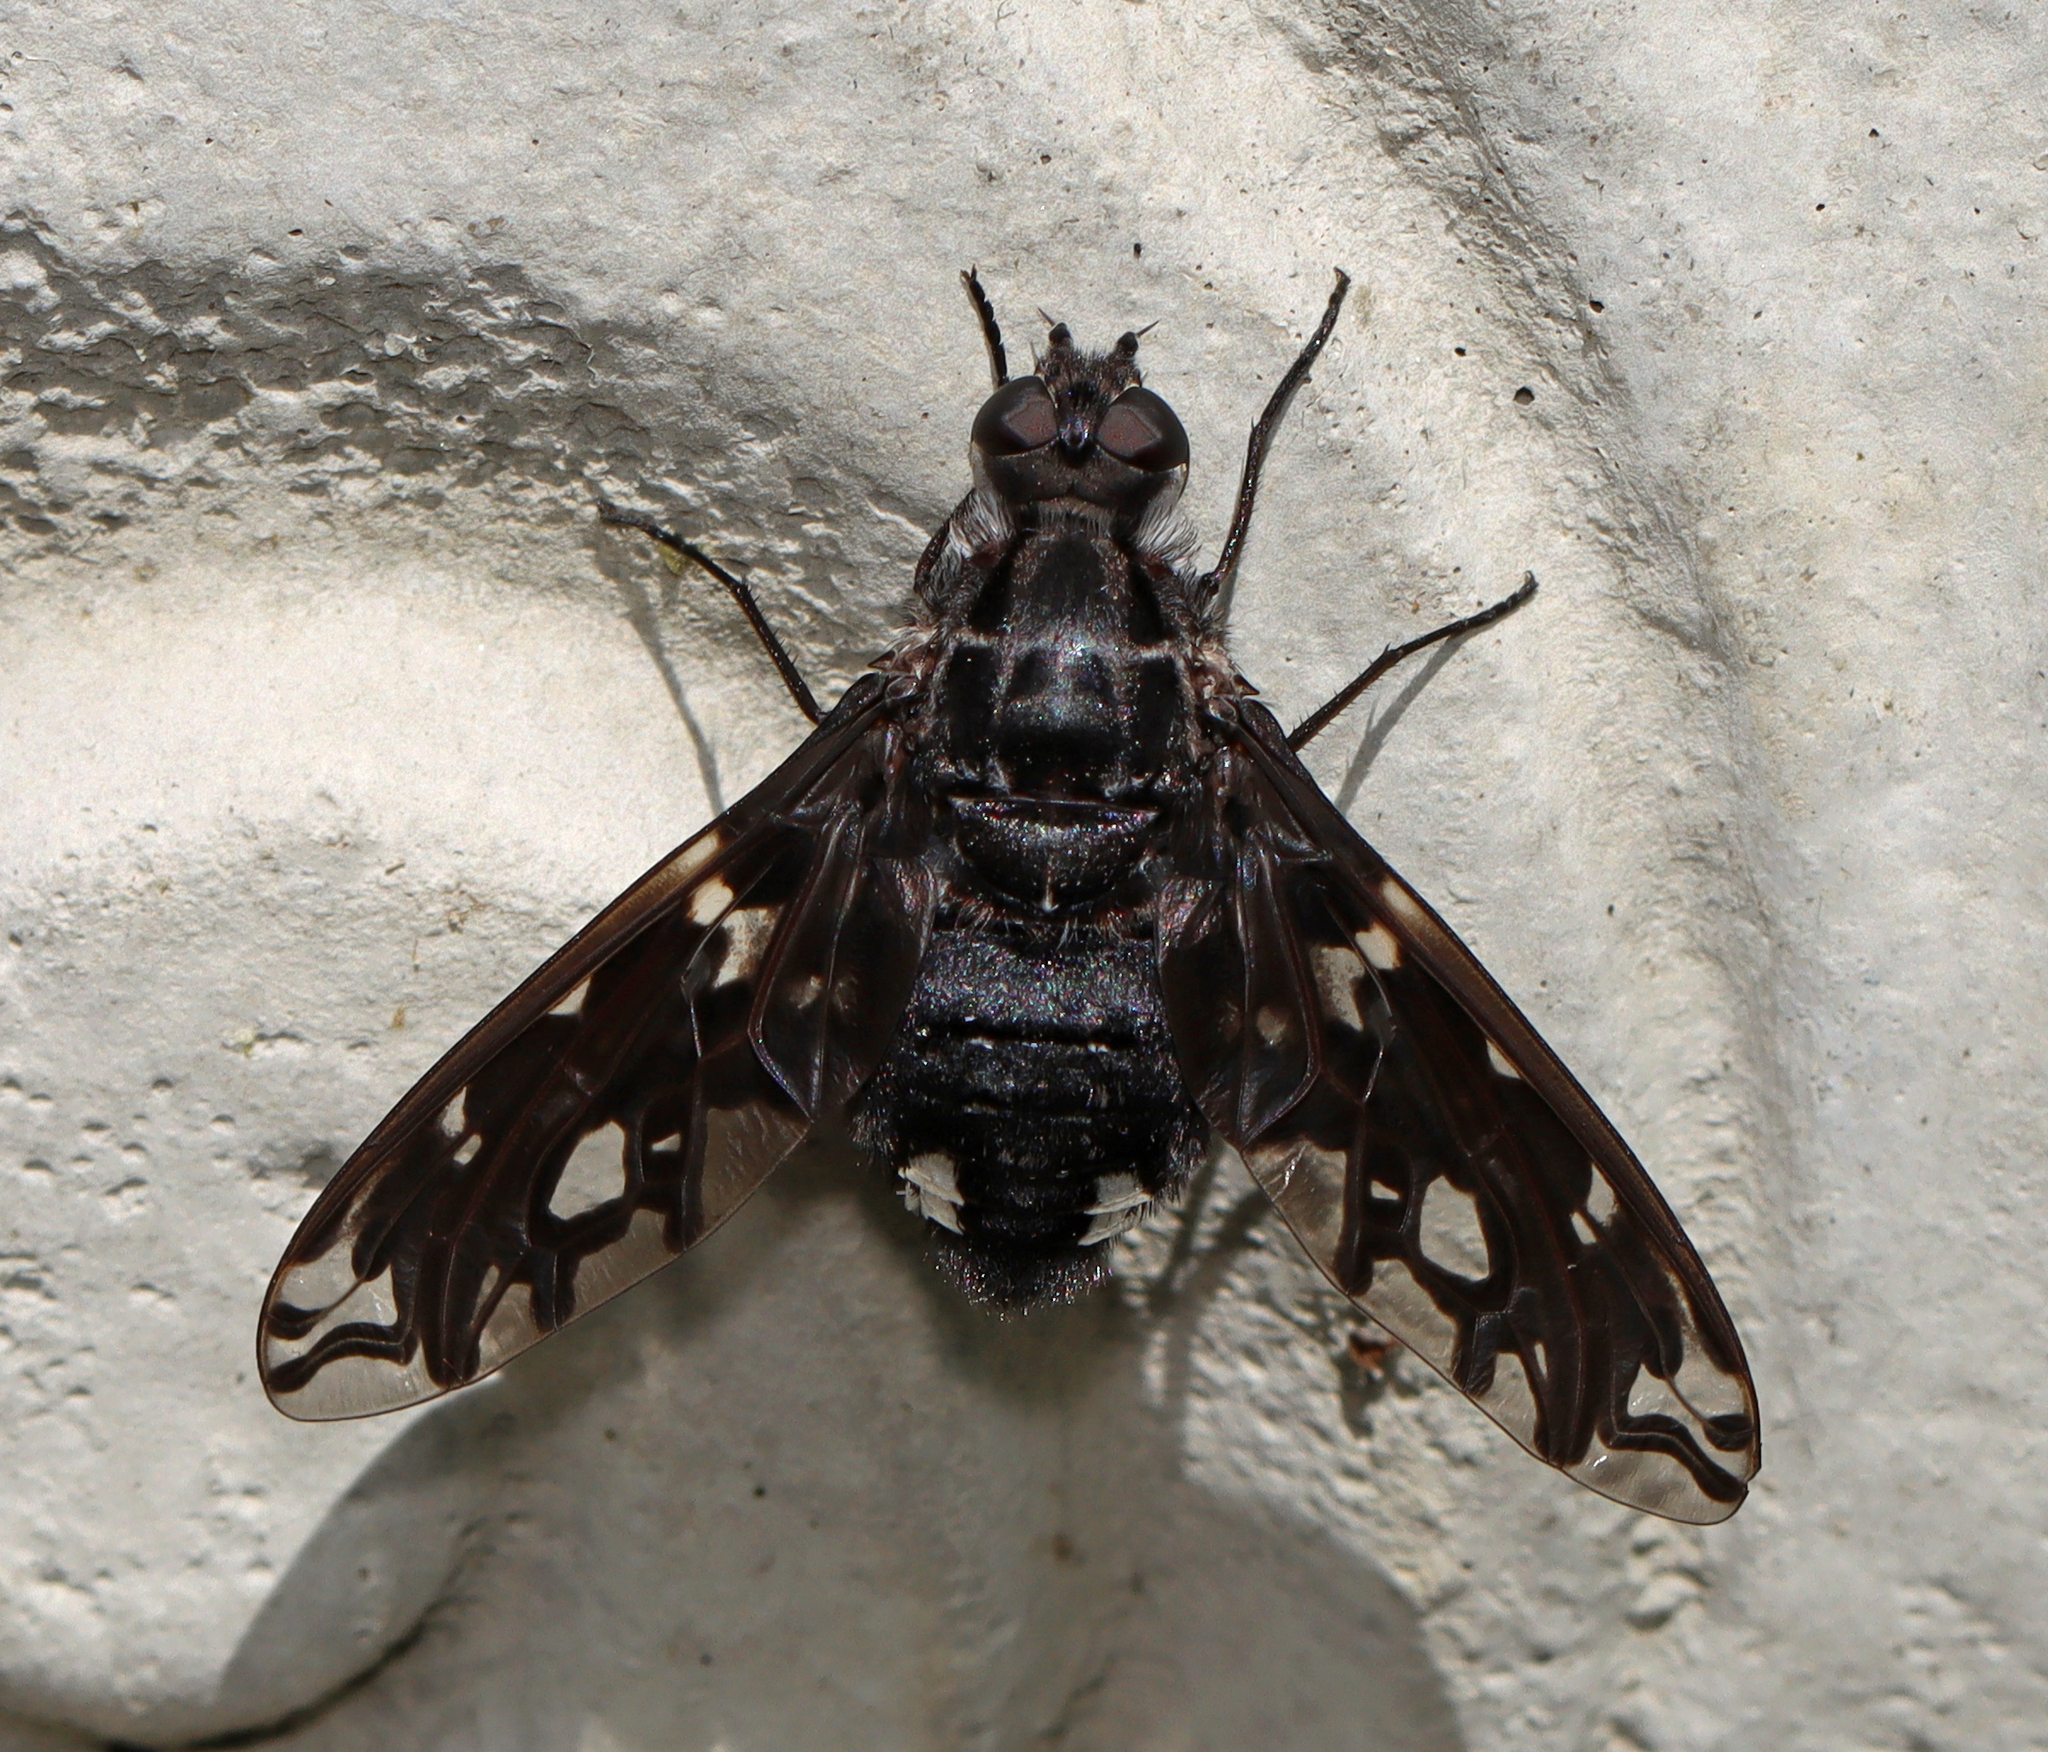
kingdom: Animalia
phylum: Arthropoda
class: Insecta
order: Diptera
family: Bombyliidae
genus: Xenox
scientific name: Xenox tigrinus
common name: Tiger bee fly
